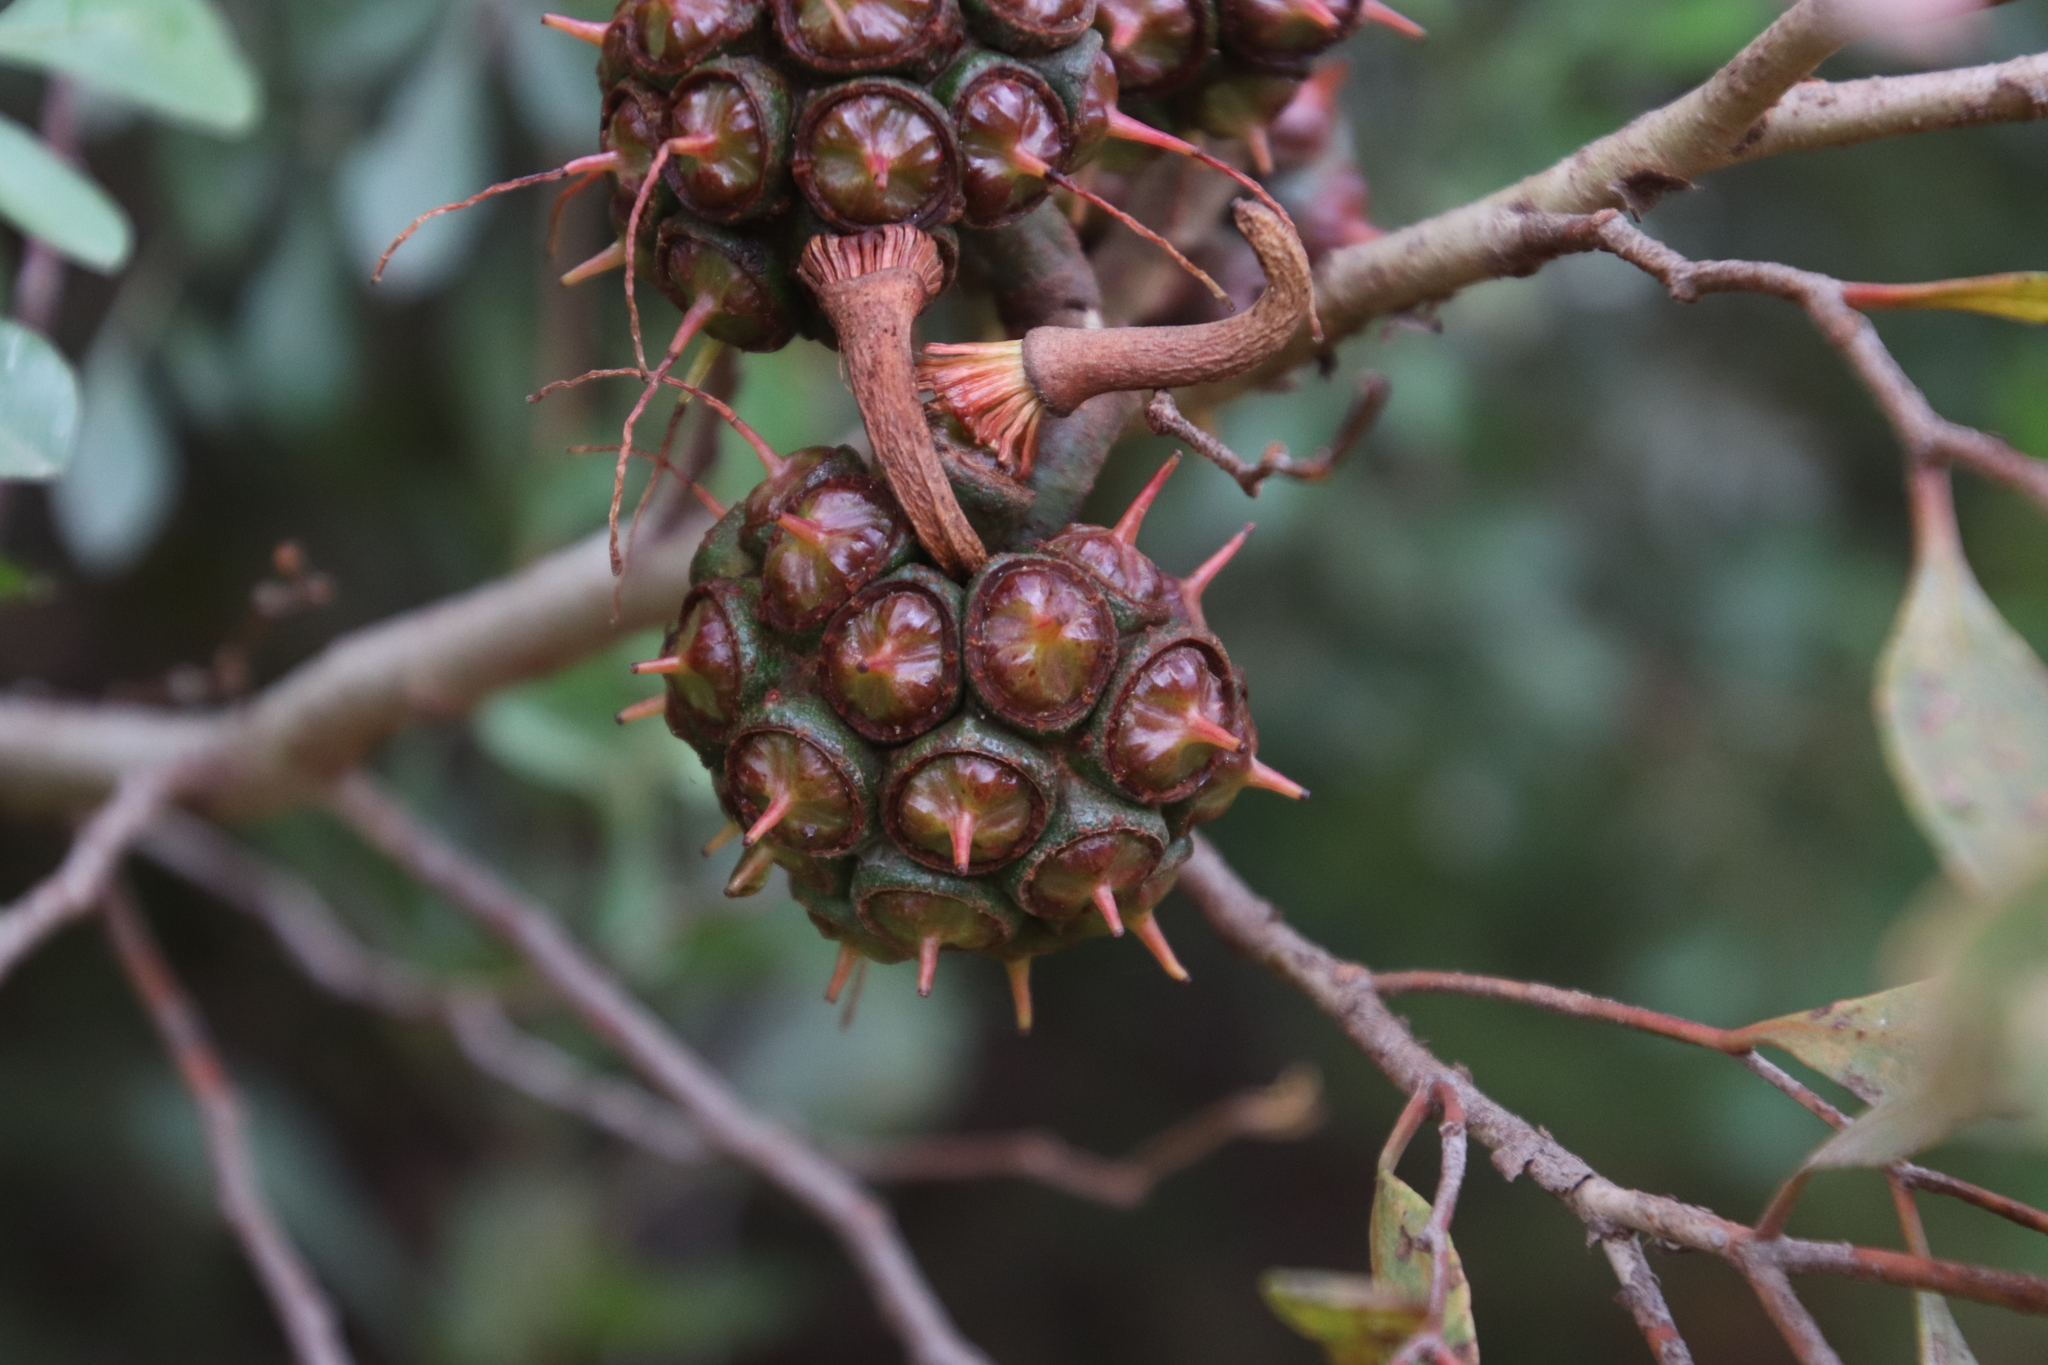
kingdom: Plantae
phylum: Tracheophyta
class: Magnoliopsida
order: Myrtales
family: Myrtaceae
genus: Eucalyptus
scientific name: Eucalyptus conferruminata
